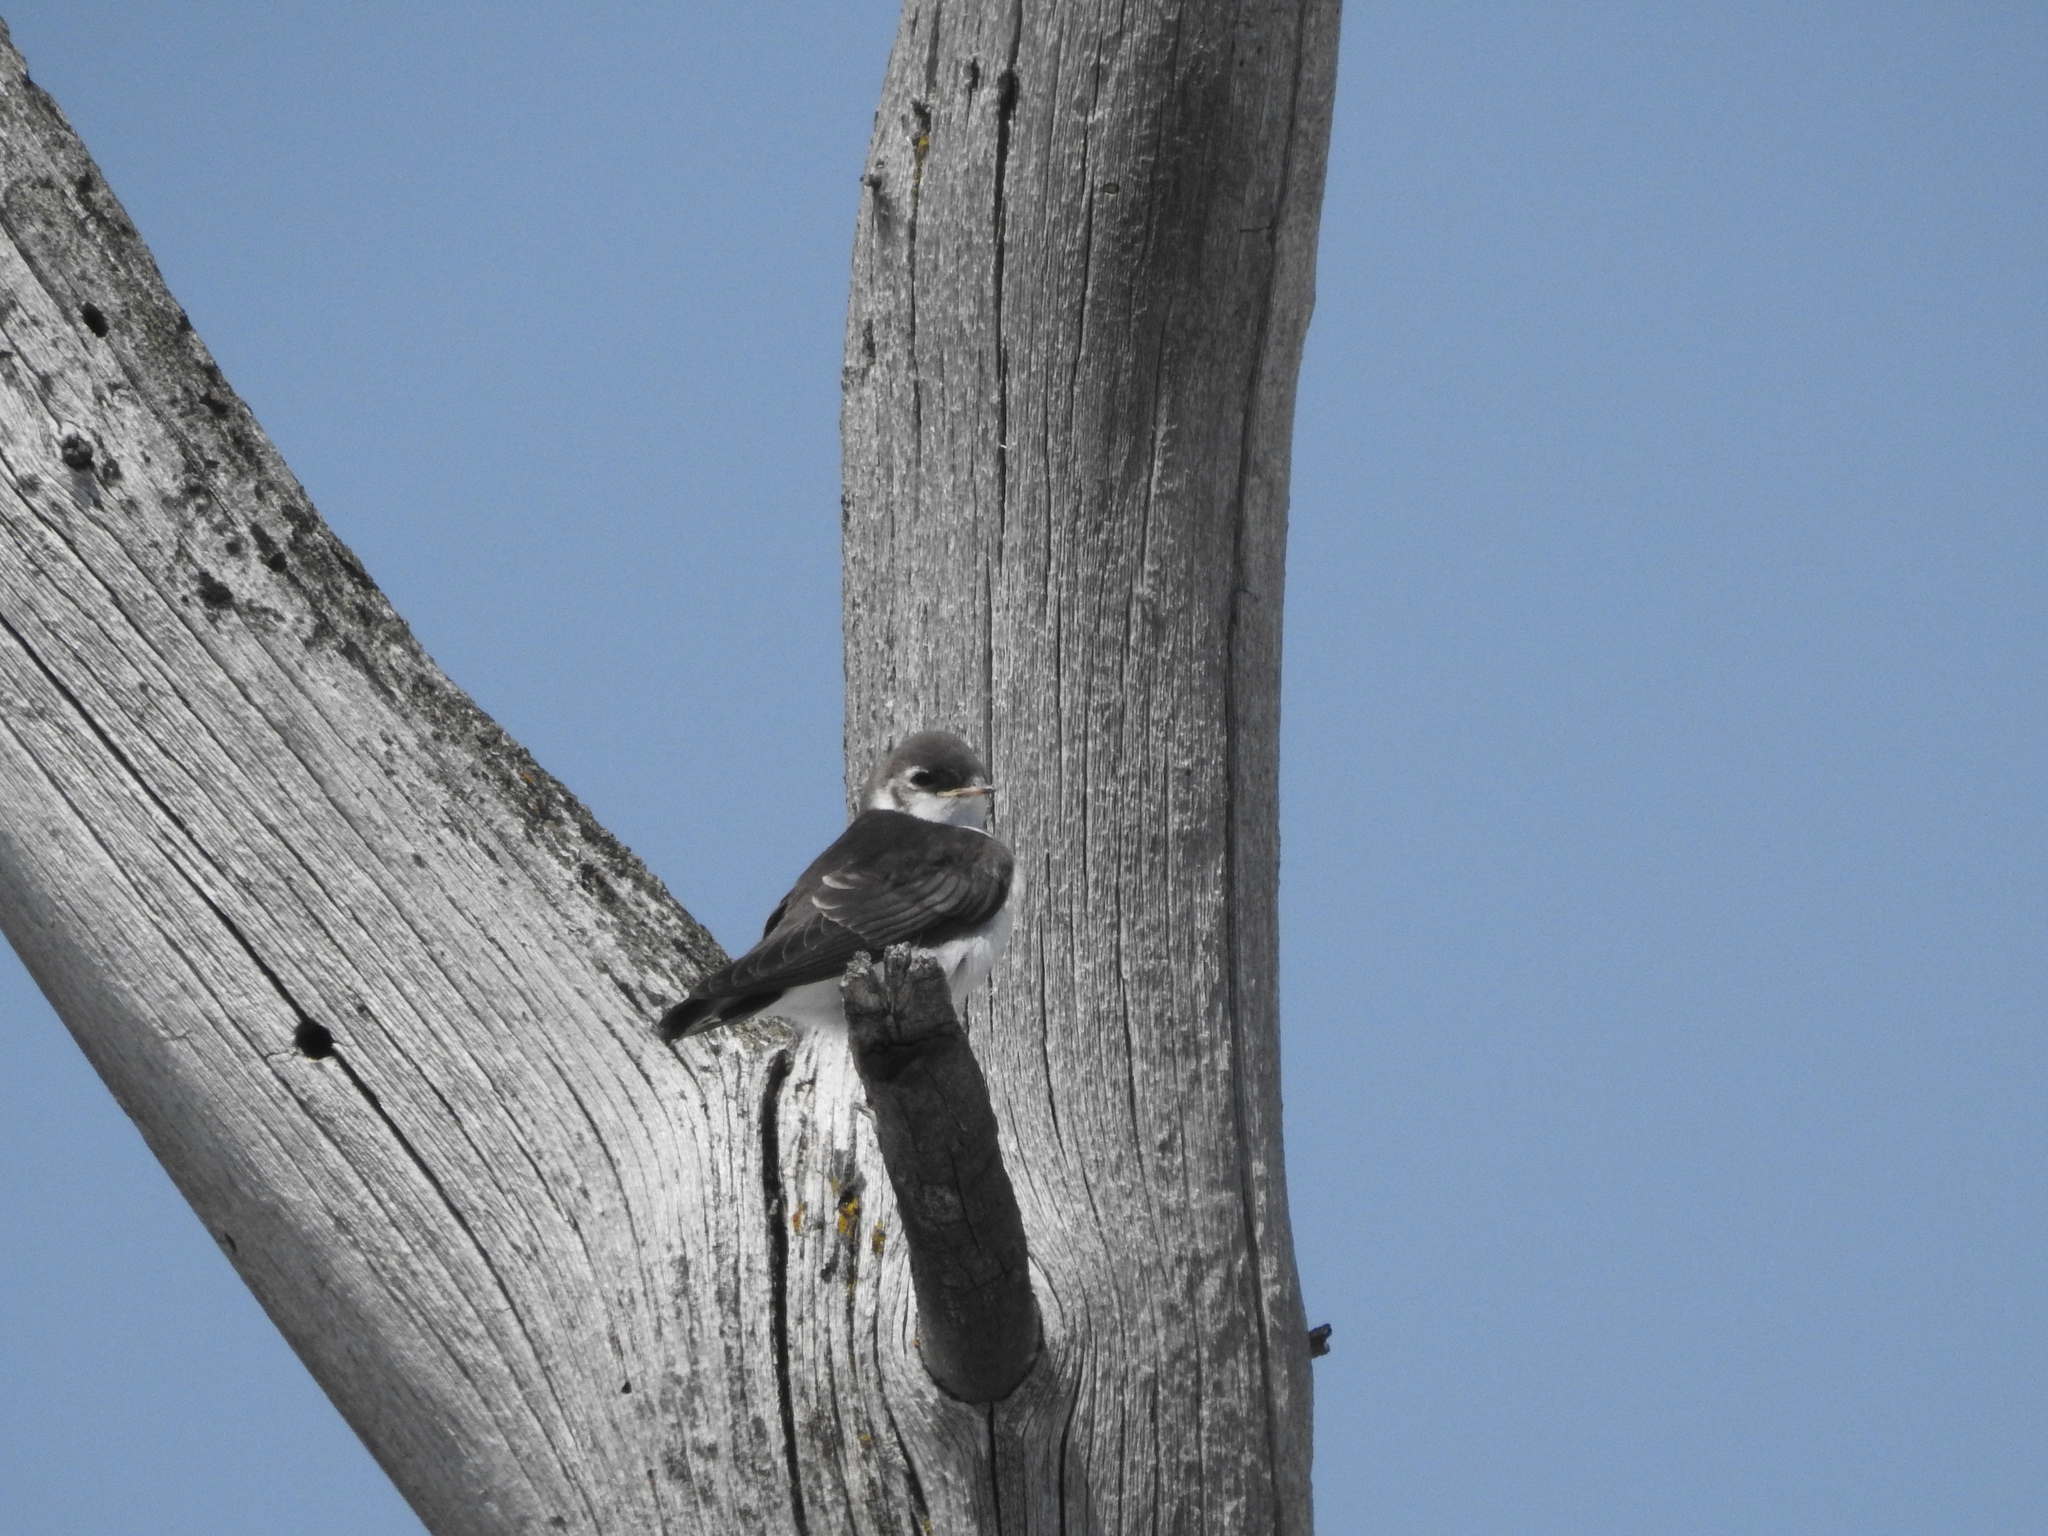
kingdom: Animalia
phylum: Chordata
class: Aves
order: Passeriformes
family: Hirundinidae
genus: Tachycineta
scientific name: Tachycineta thalassina
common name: Violet-green swallow
